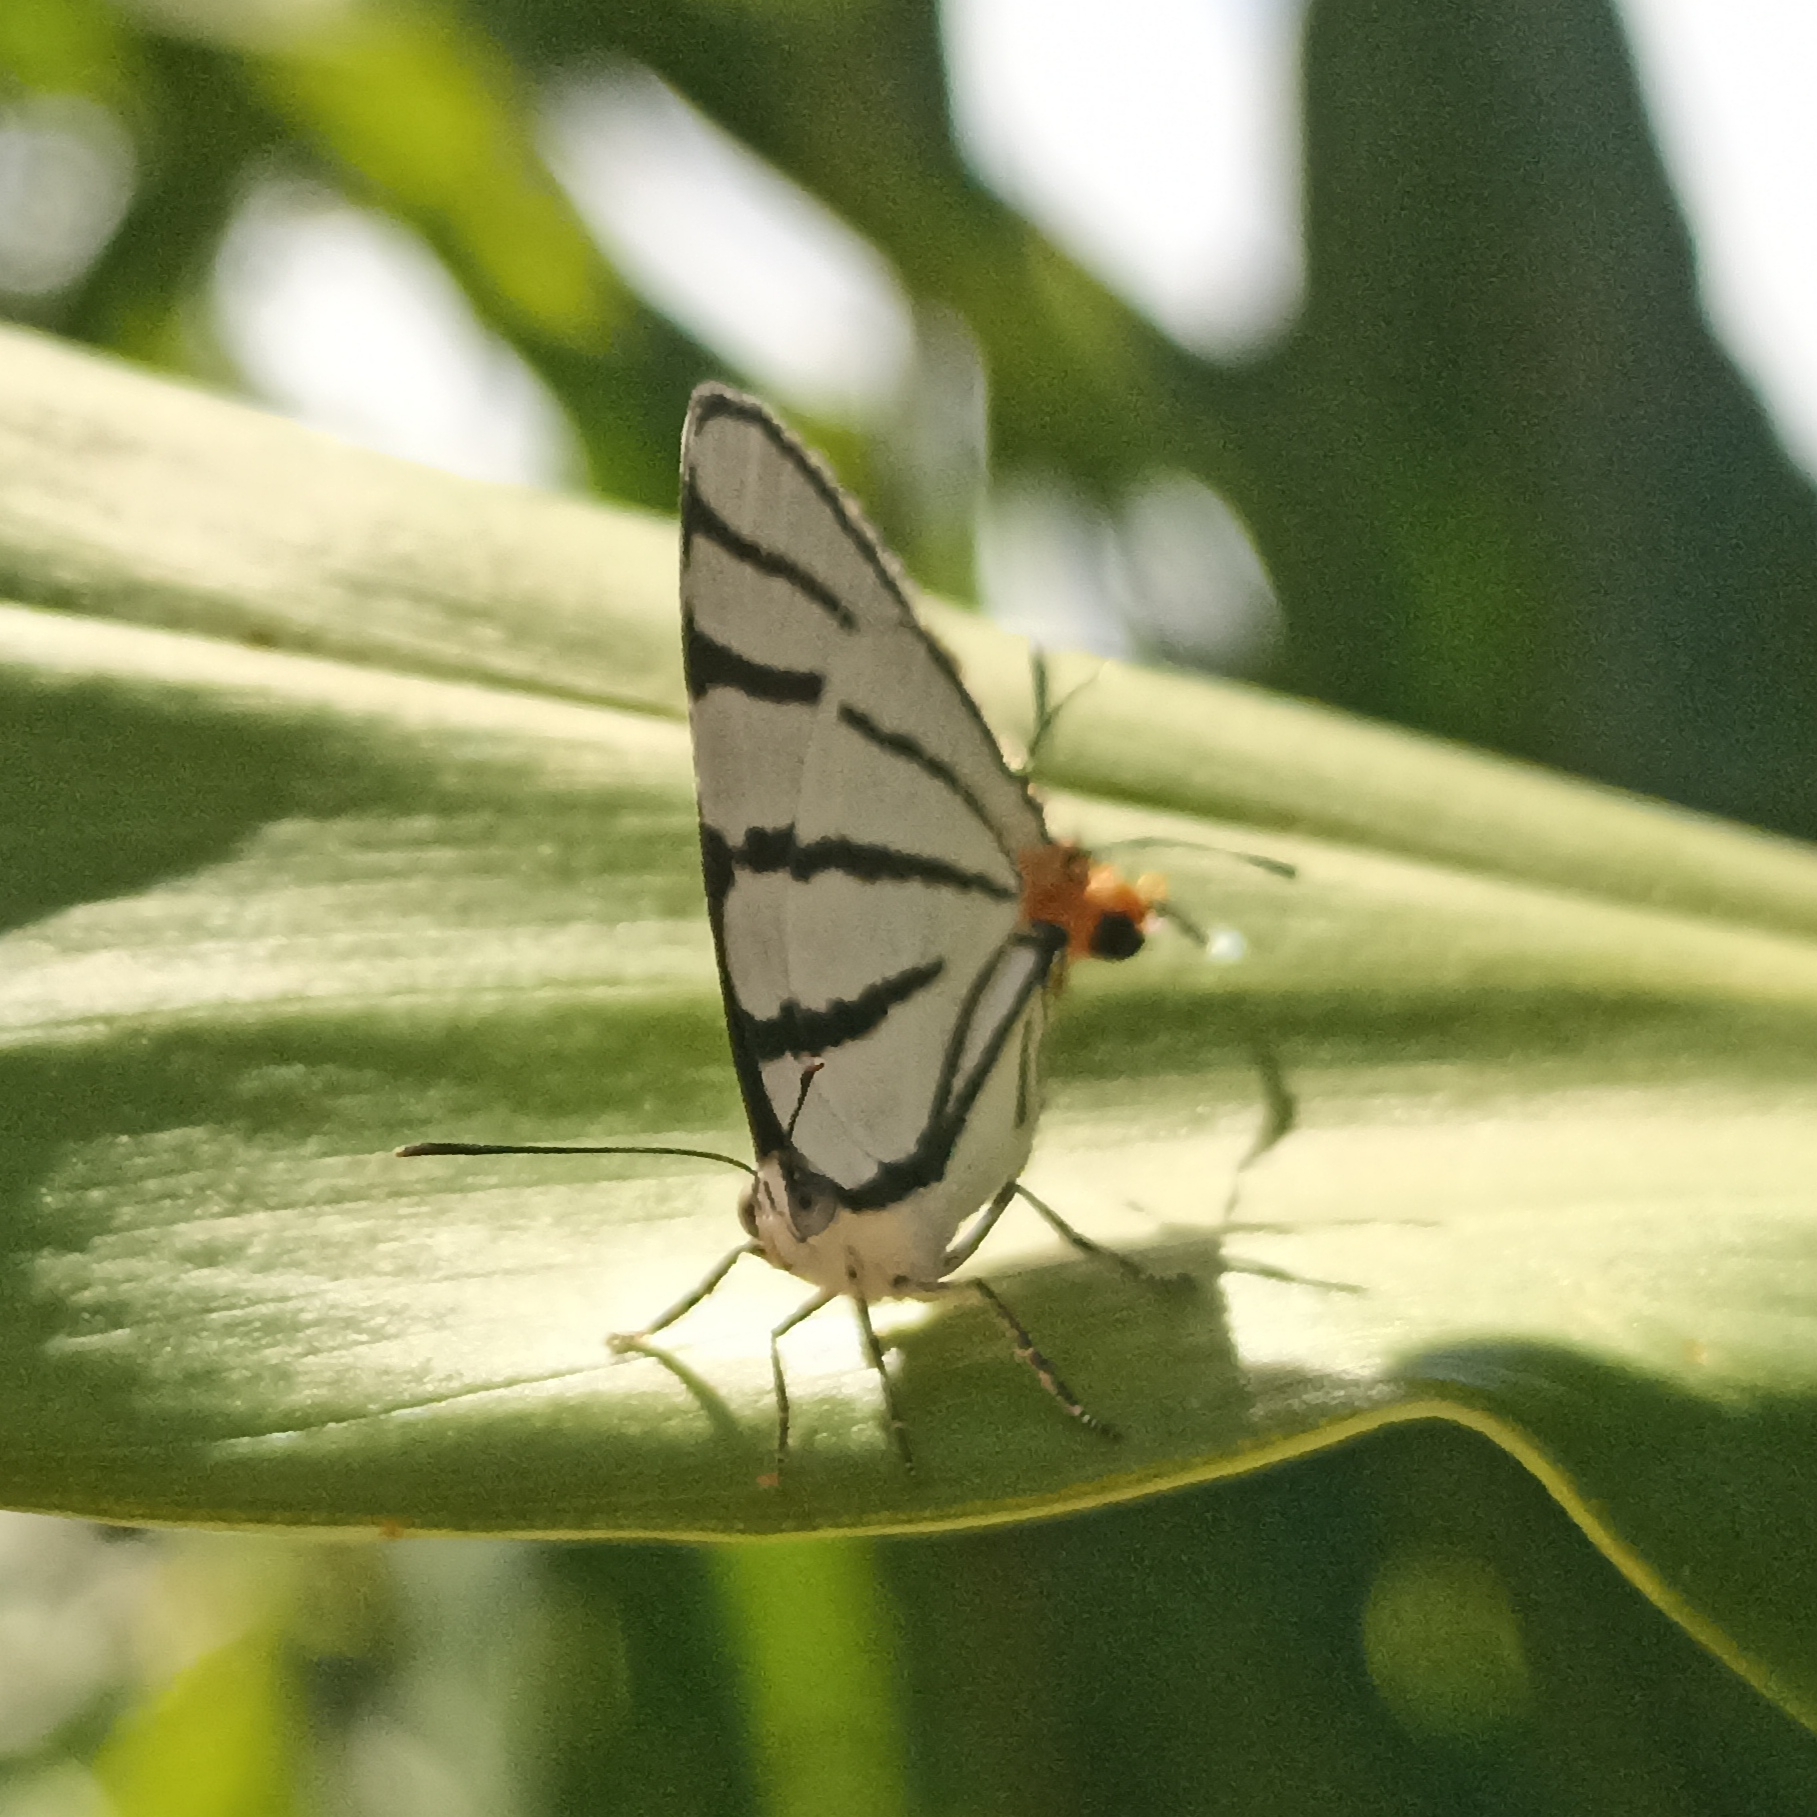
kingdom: Animalia
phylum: Arthropoda
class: Insecta
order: Lepidoptera
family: Lycaenidae
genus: Arawacus
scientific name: Arawacus sito
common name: Fine-lined hairstreak
